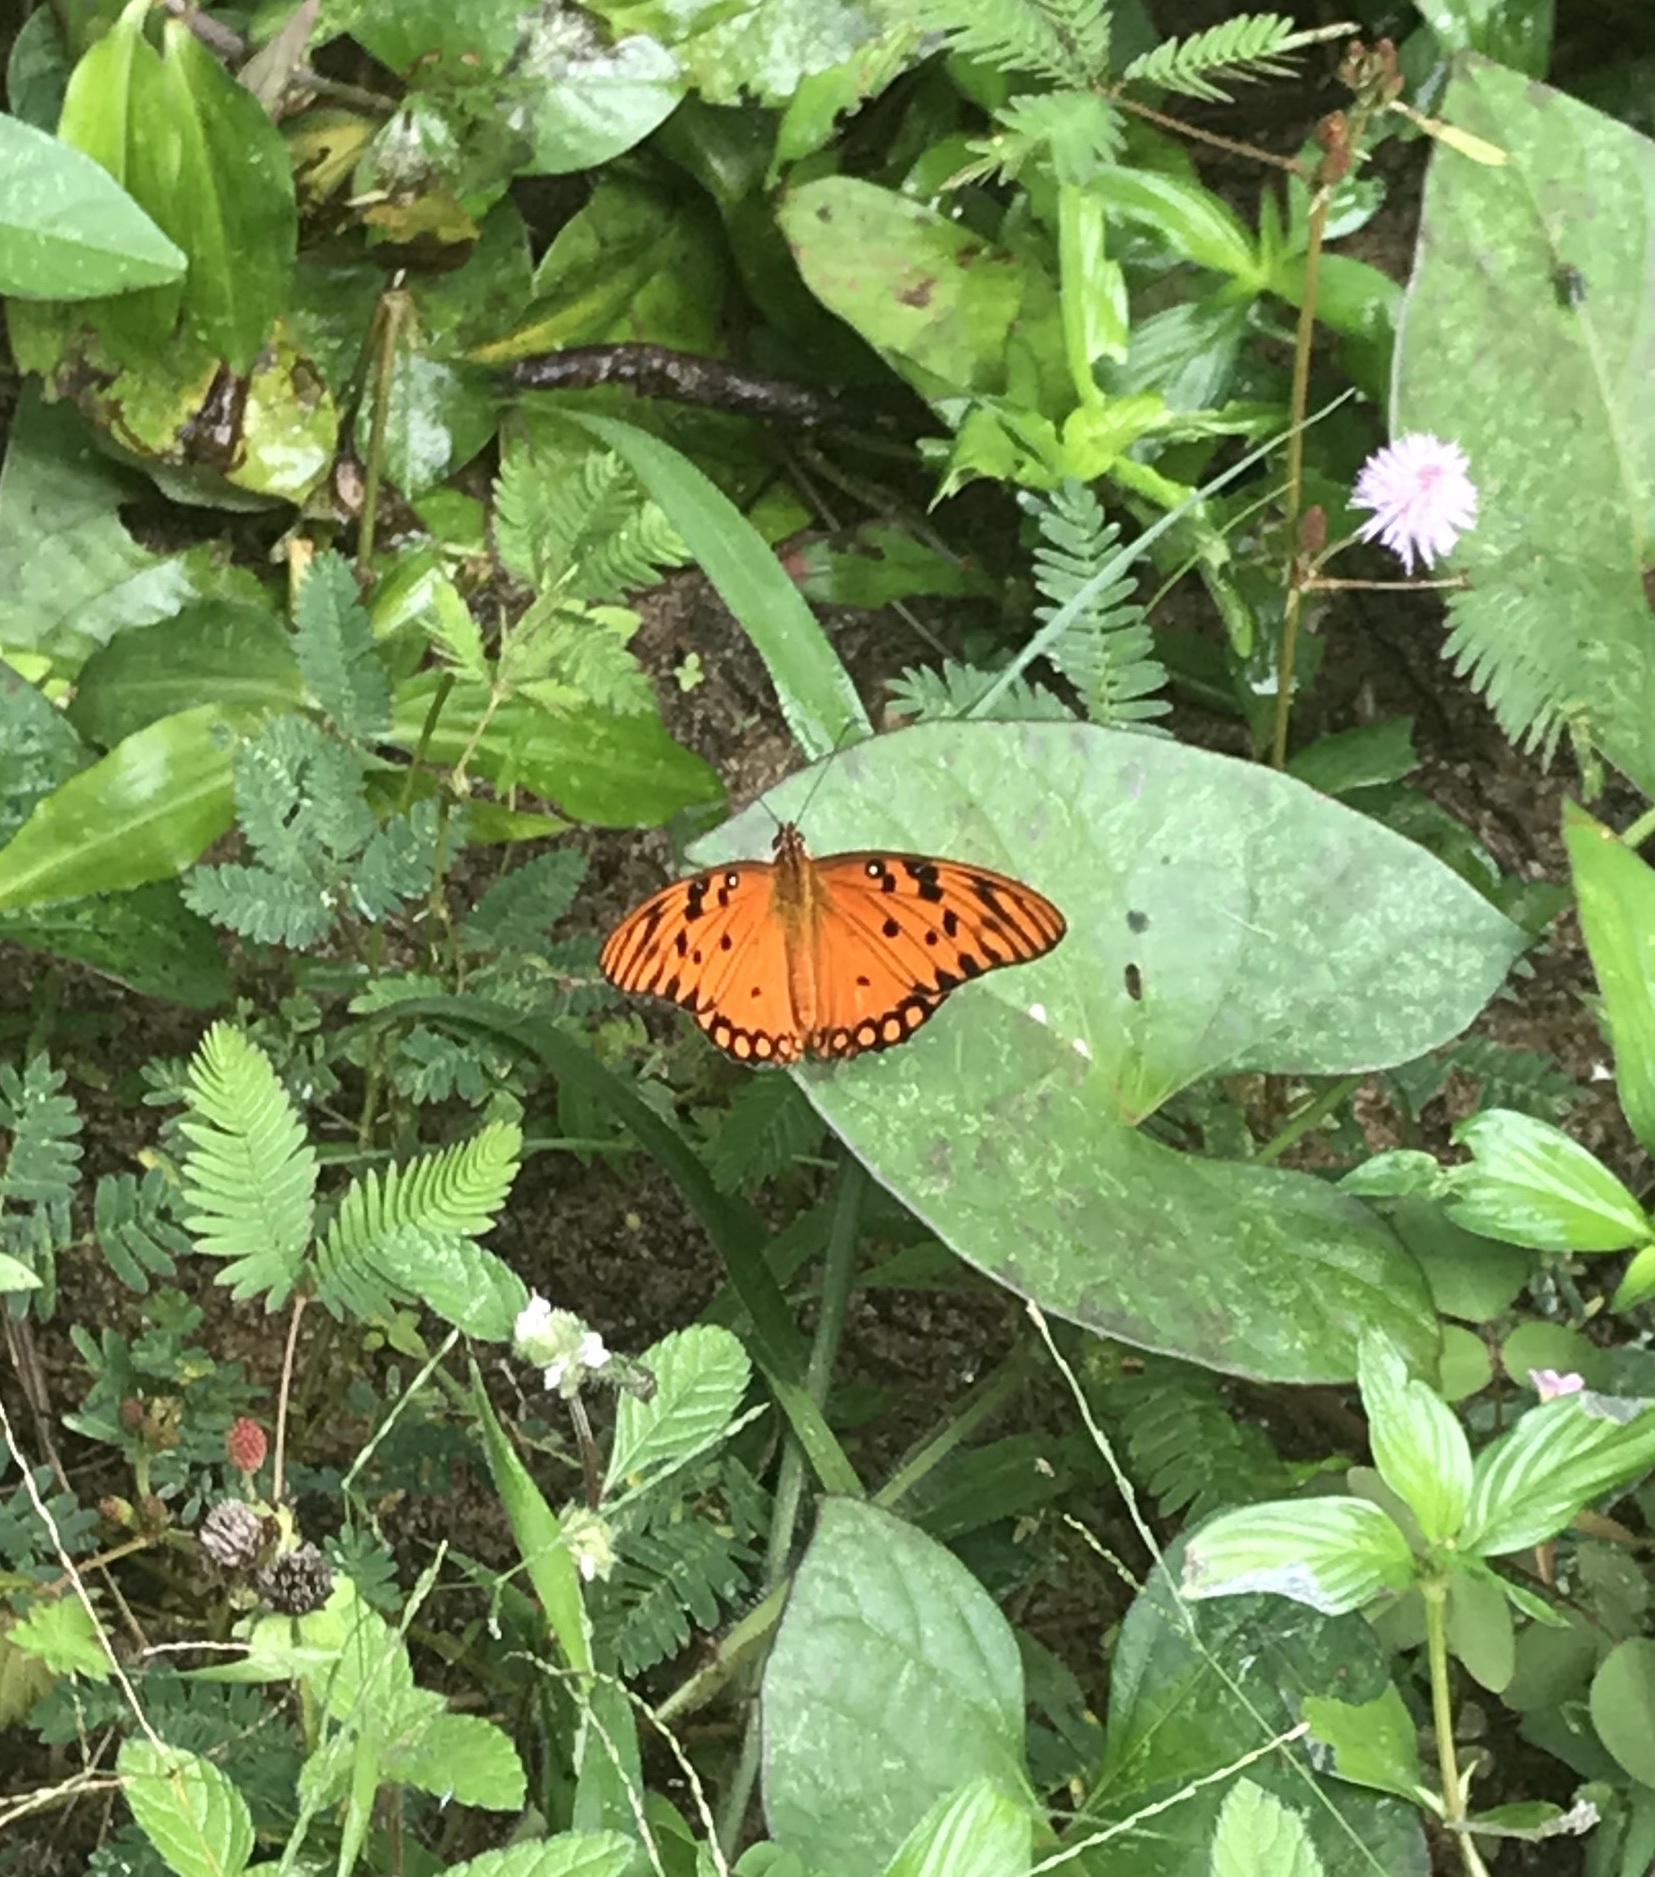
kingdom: Animalia
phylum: Arthropoda
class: Insecta
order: Lepidoptera
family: Nymphalidae
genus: Dione
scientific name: Dione vanillae
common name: Gulf fritillary
